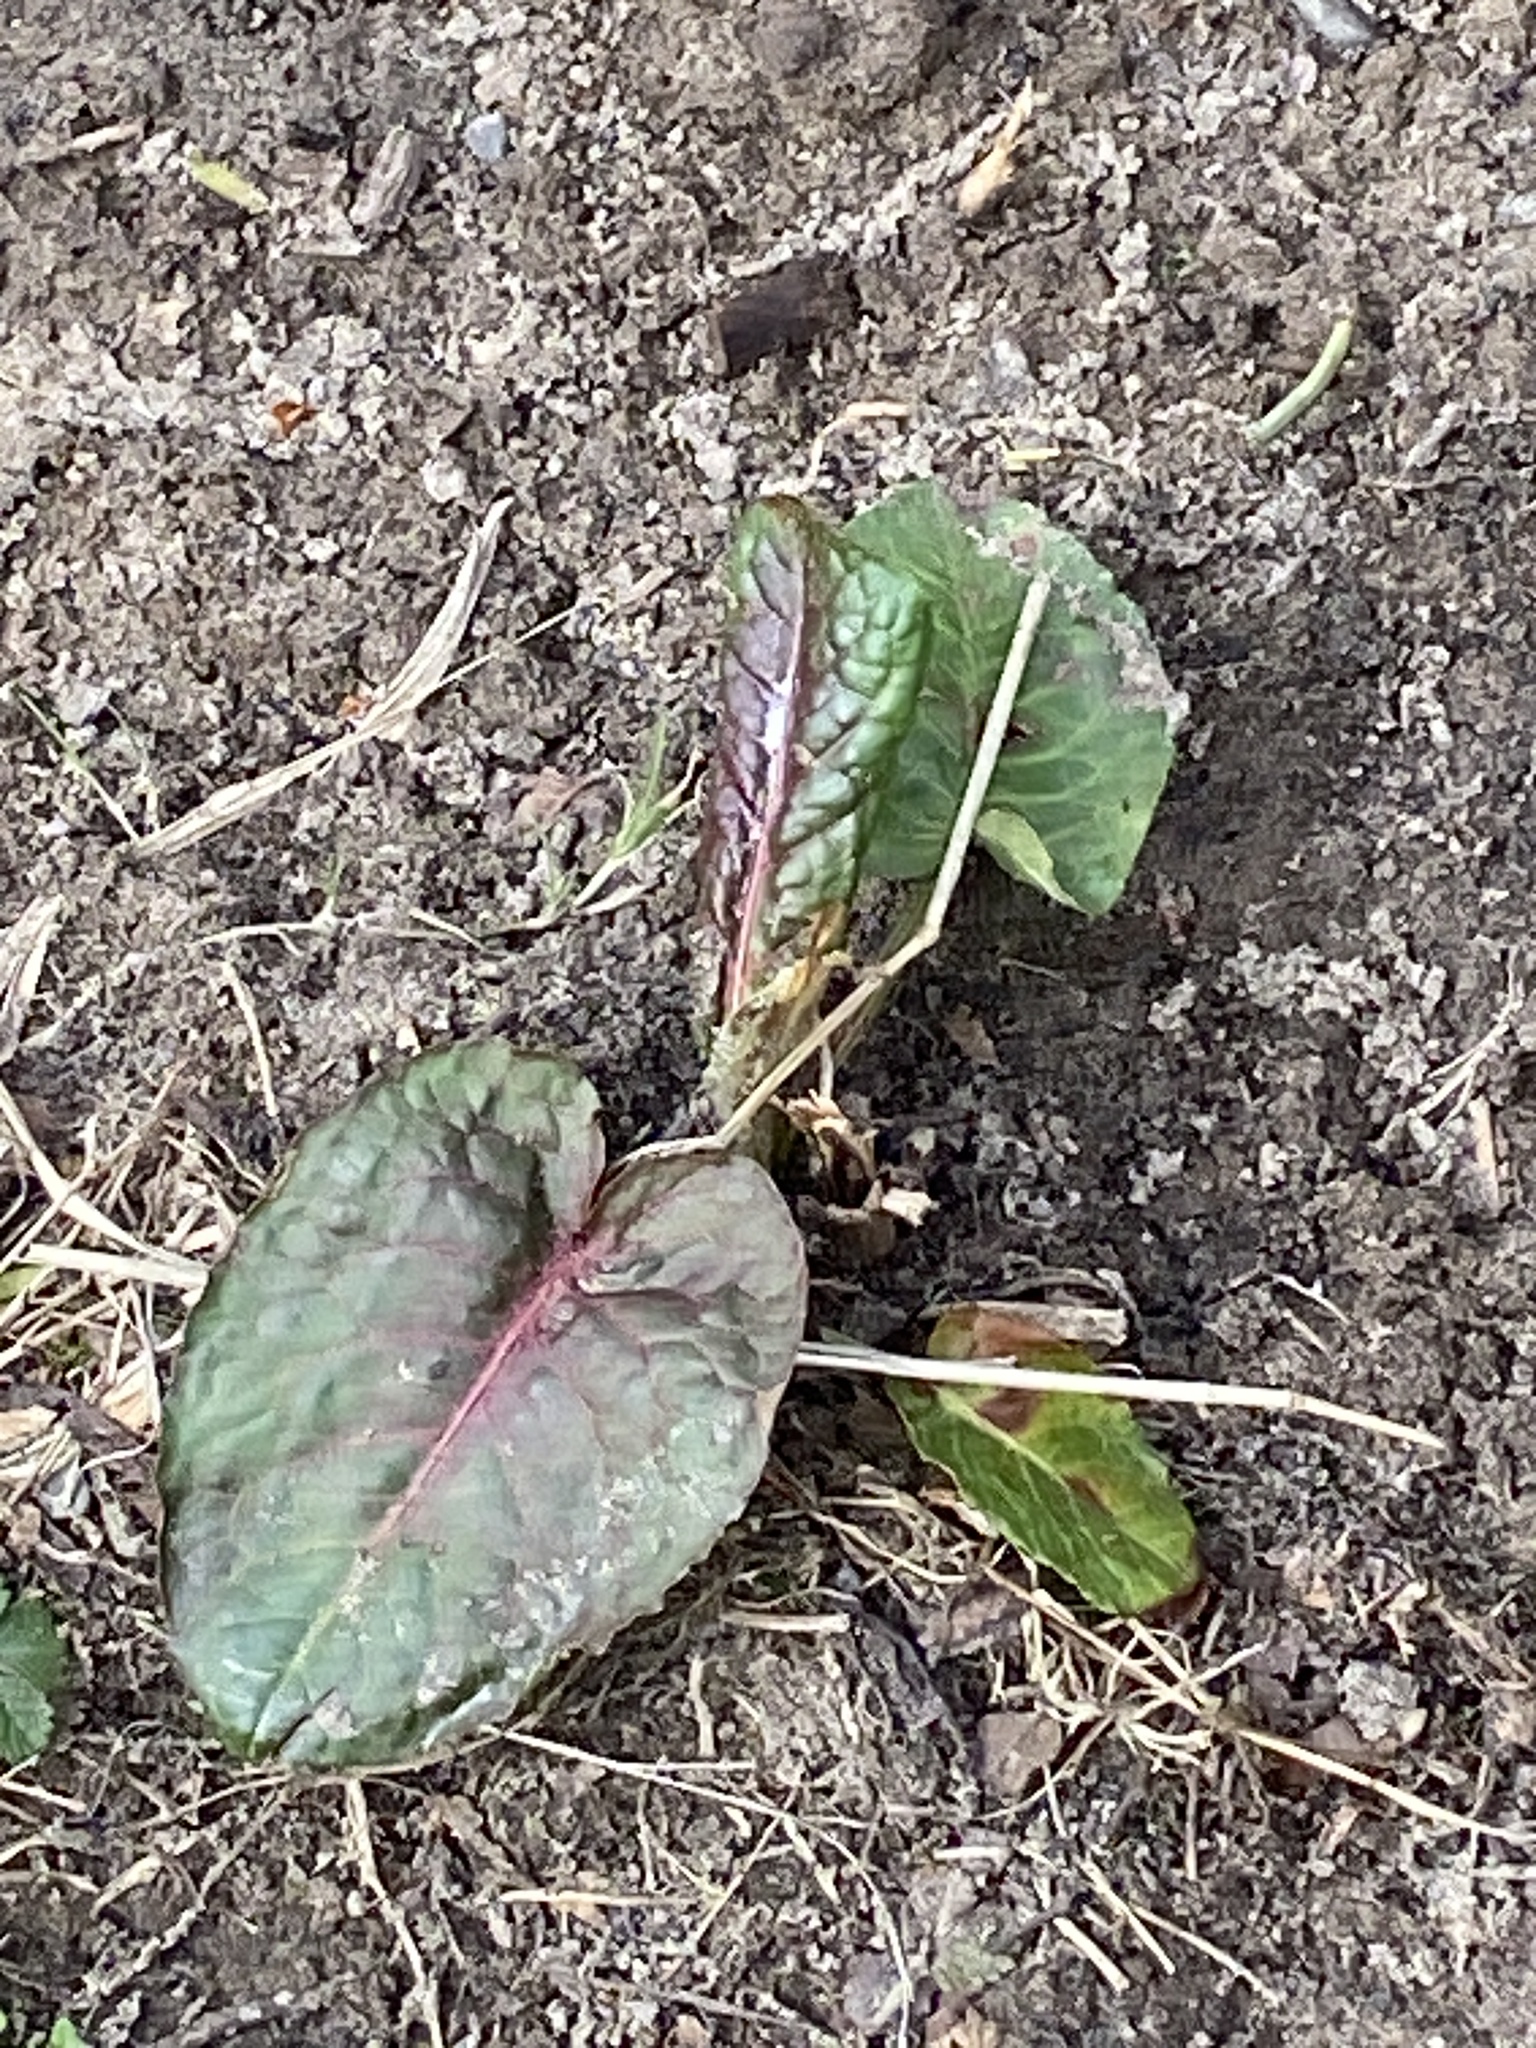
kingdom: Plantae
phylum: Tracheophyta
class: Magnoliopsida
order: Caryophyllales
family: Polygonaceae
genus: Rumex
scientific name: Rumex obtusifolius
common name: Bitter dock
